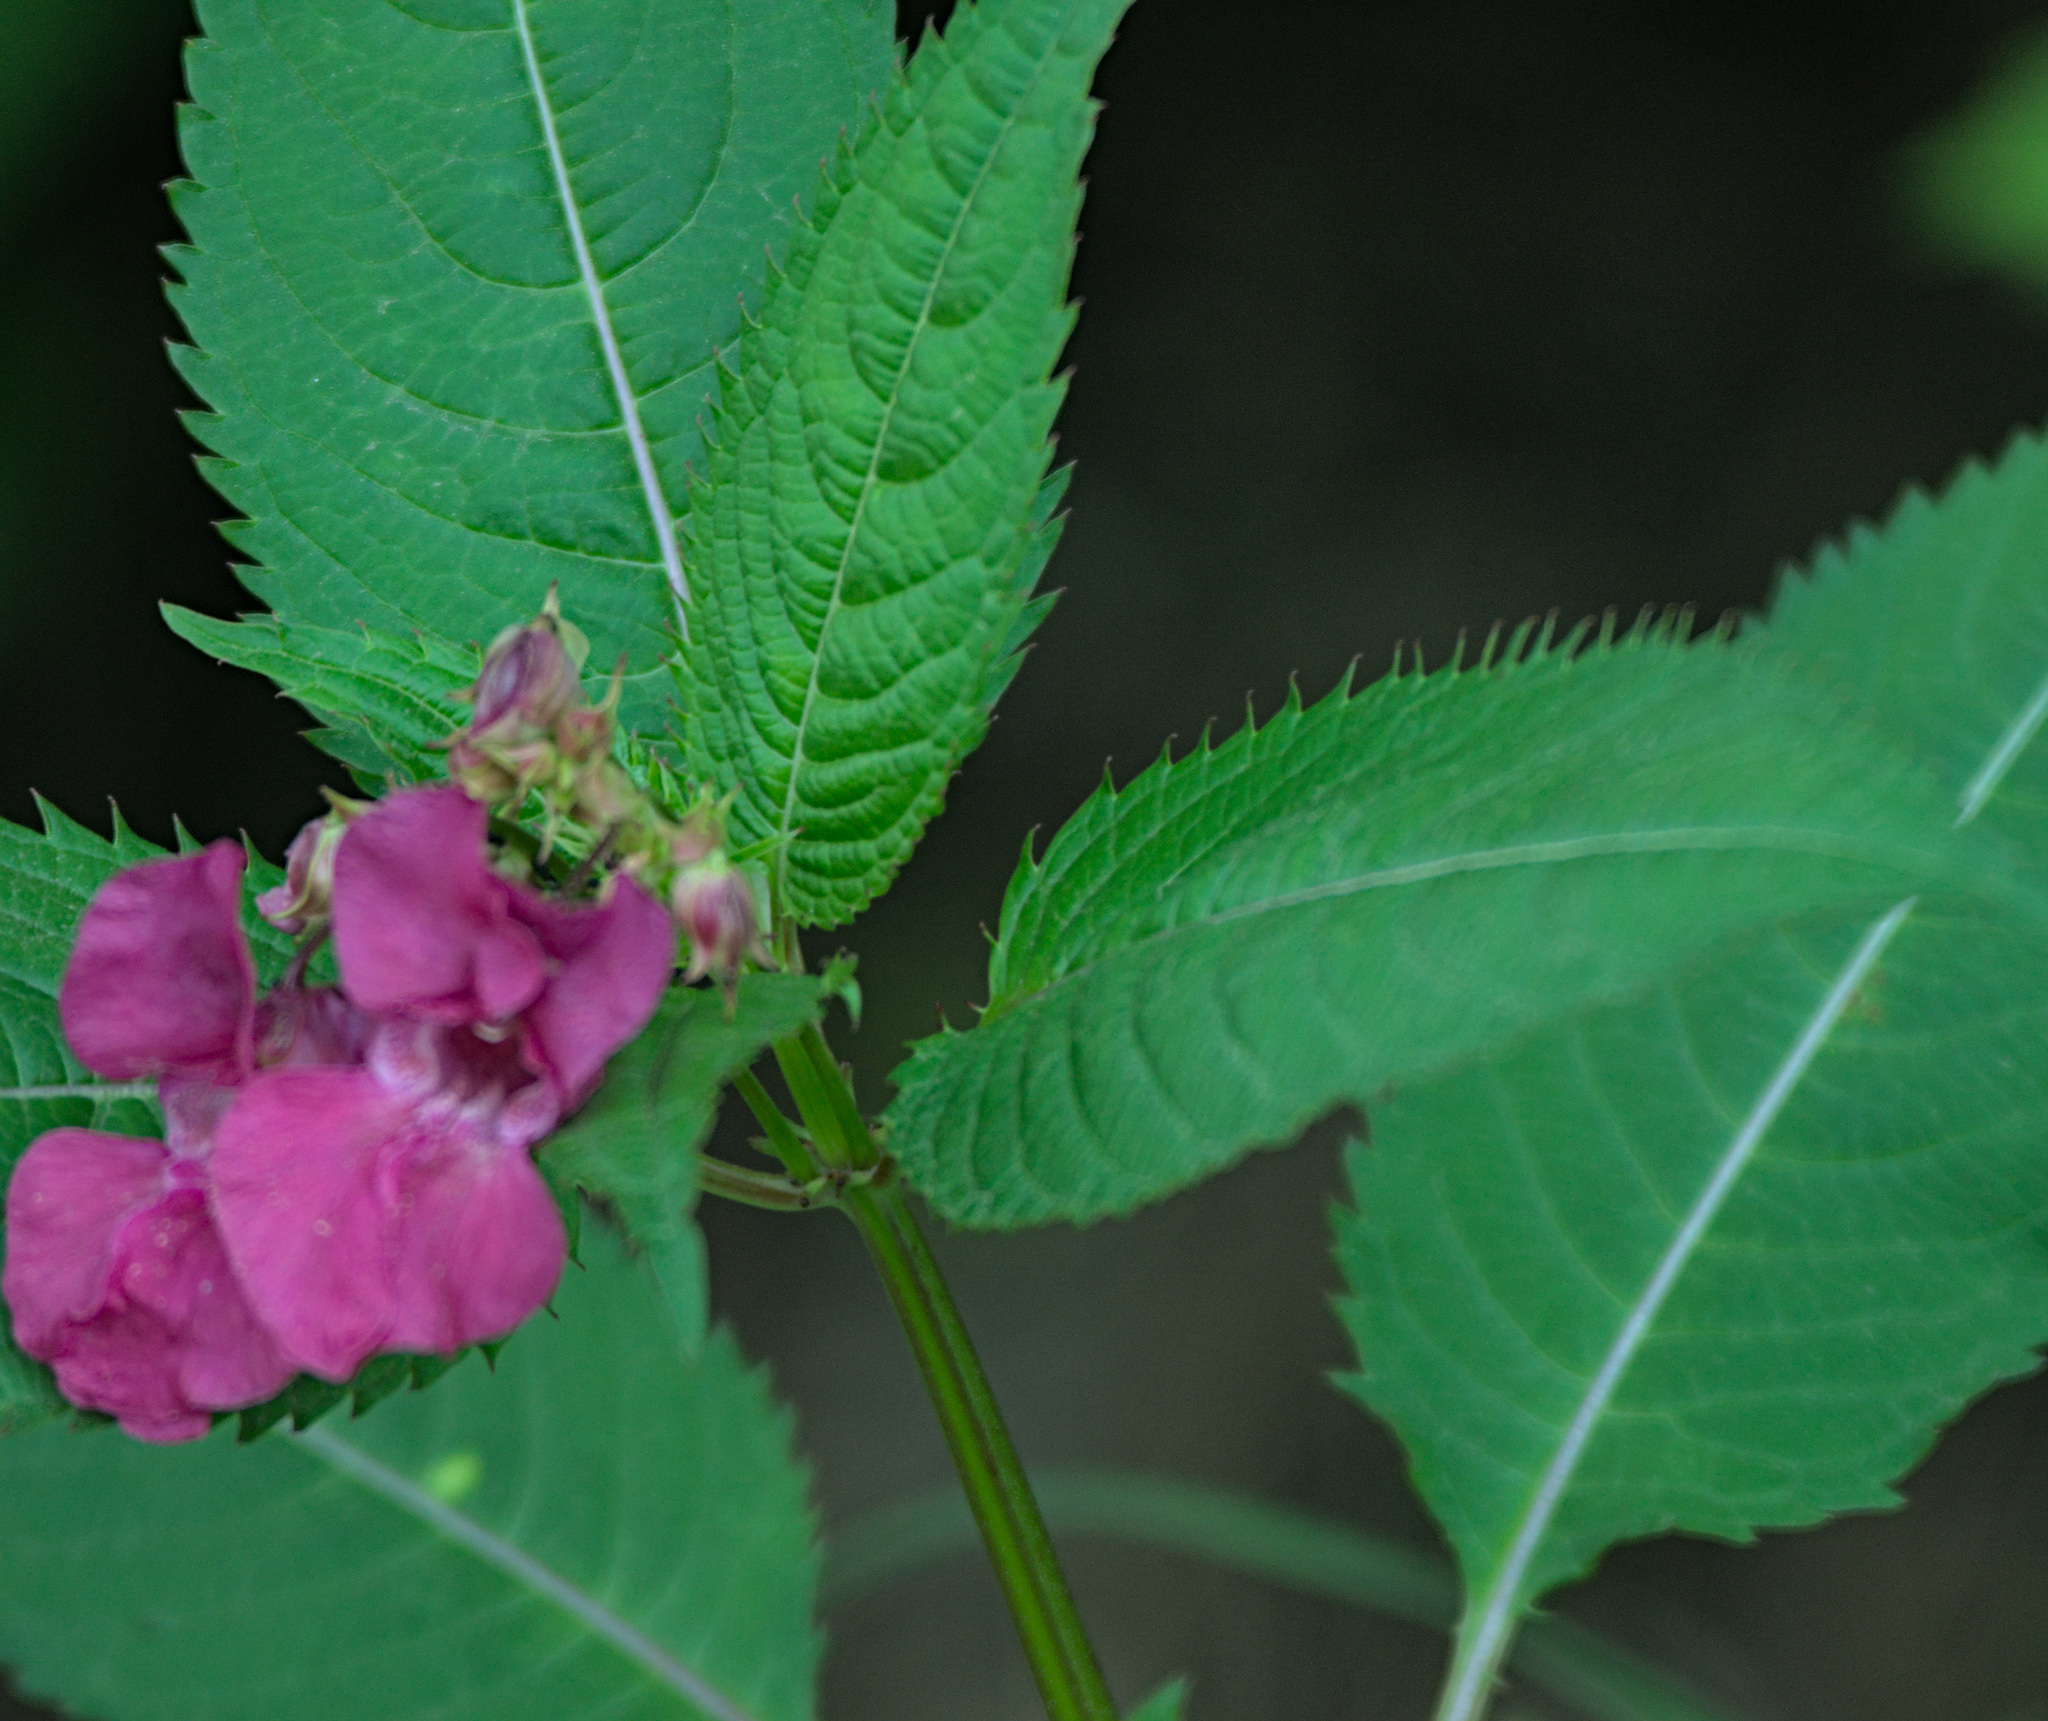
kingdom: Plantae
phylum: Tracheophyta
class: Magnoliopsida
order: Ericales
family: Balsaminaceae
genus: Impatiens
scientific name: Impatiens glandulifera
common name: Himalayan balsam
